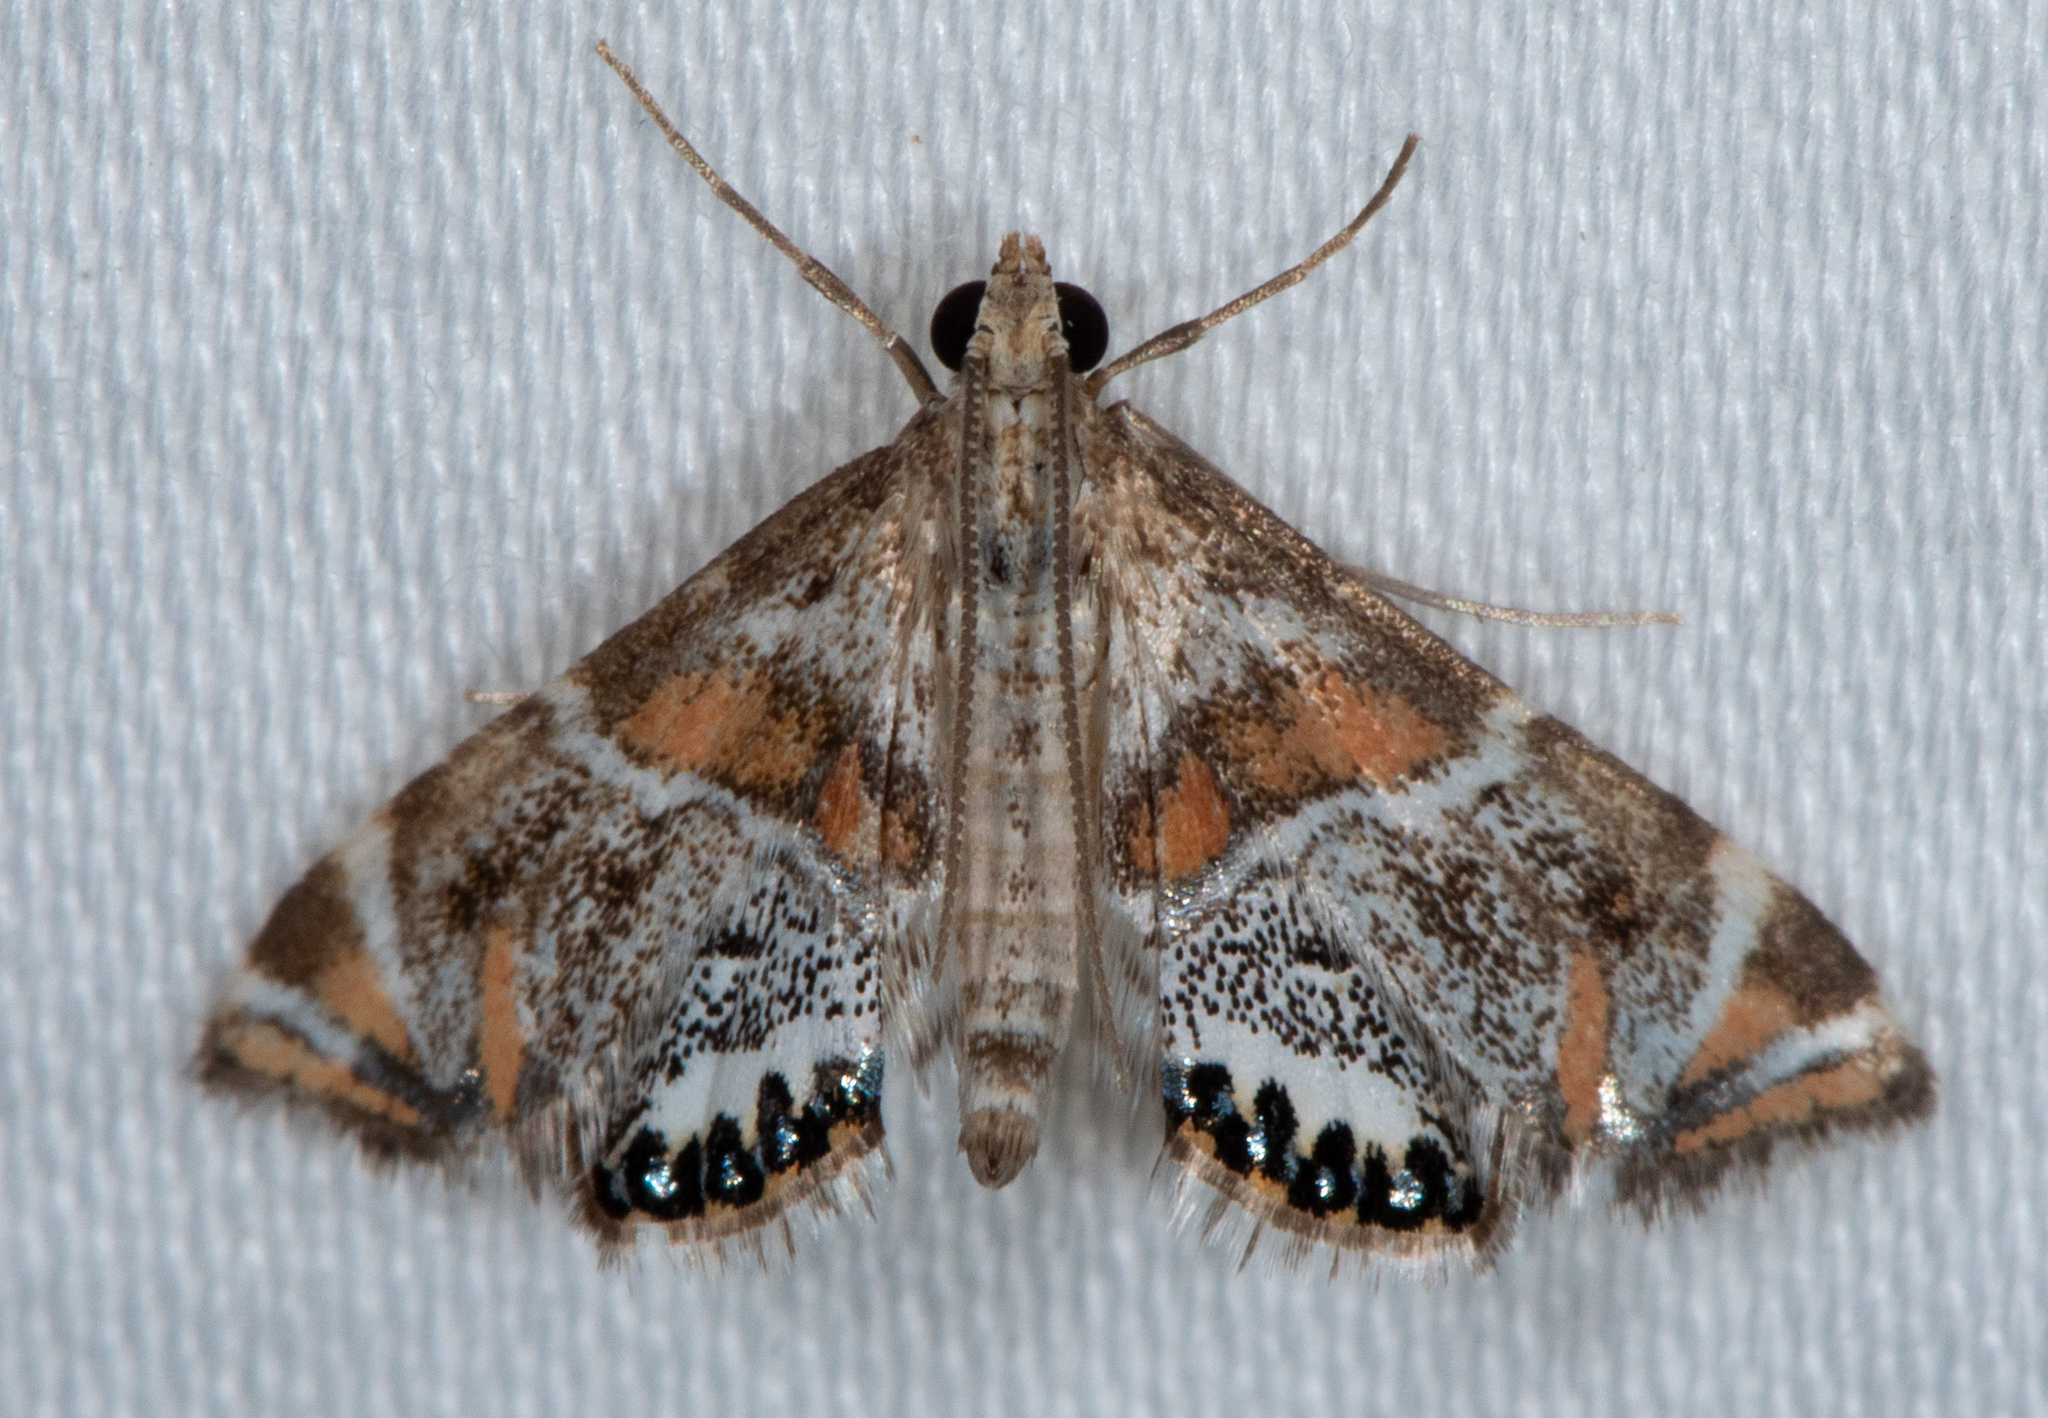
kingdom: Animalia
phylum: Arthropoda
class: Insecta
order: Lepidoptera
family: Crambidae
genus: Petrophila
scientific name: Petrophila jaliscalis
